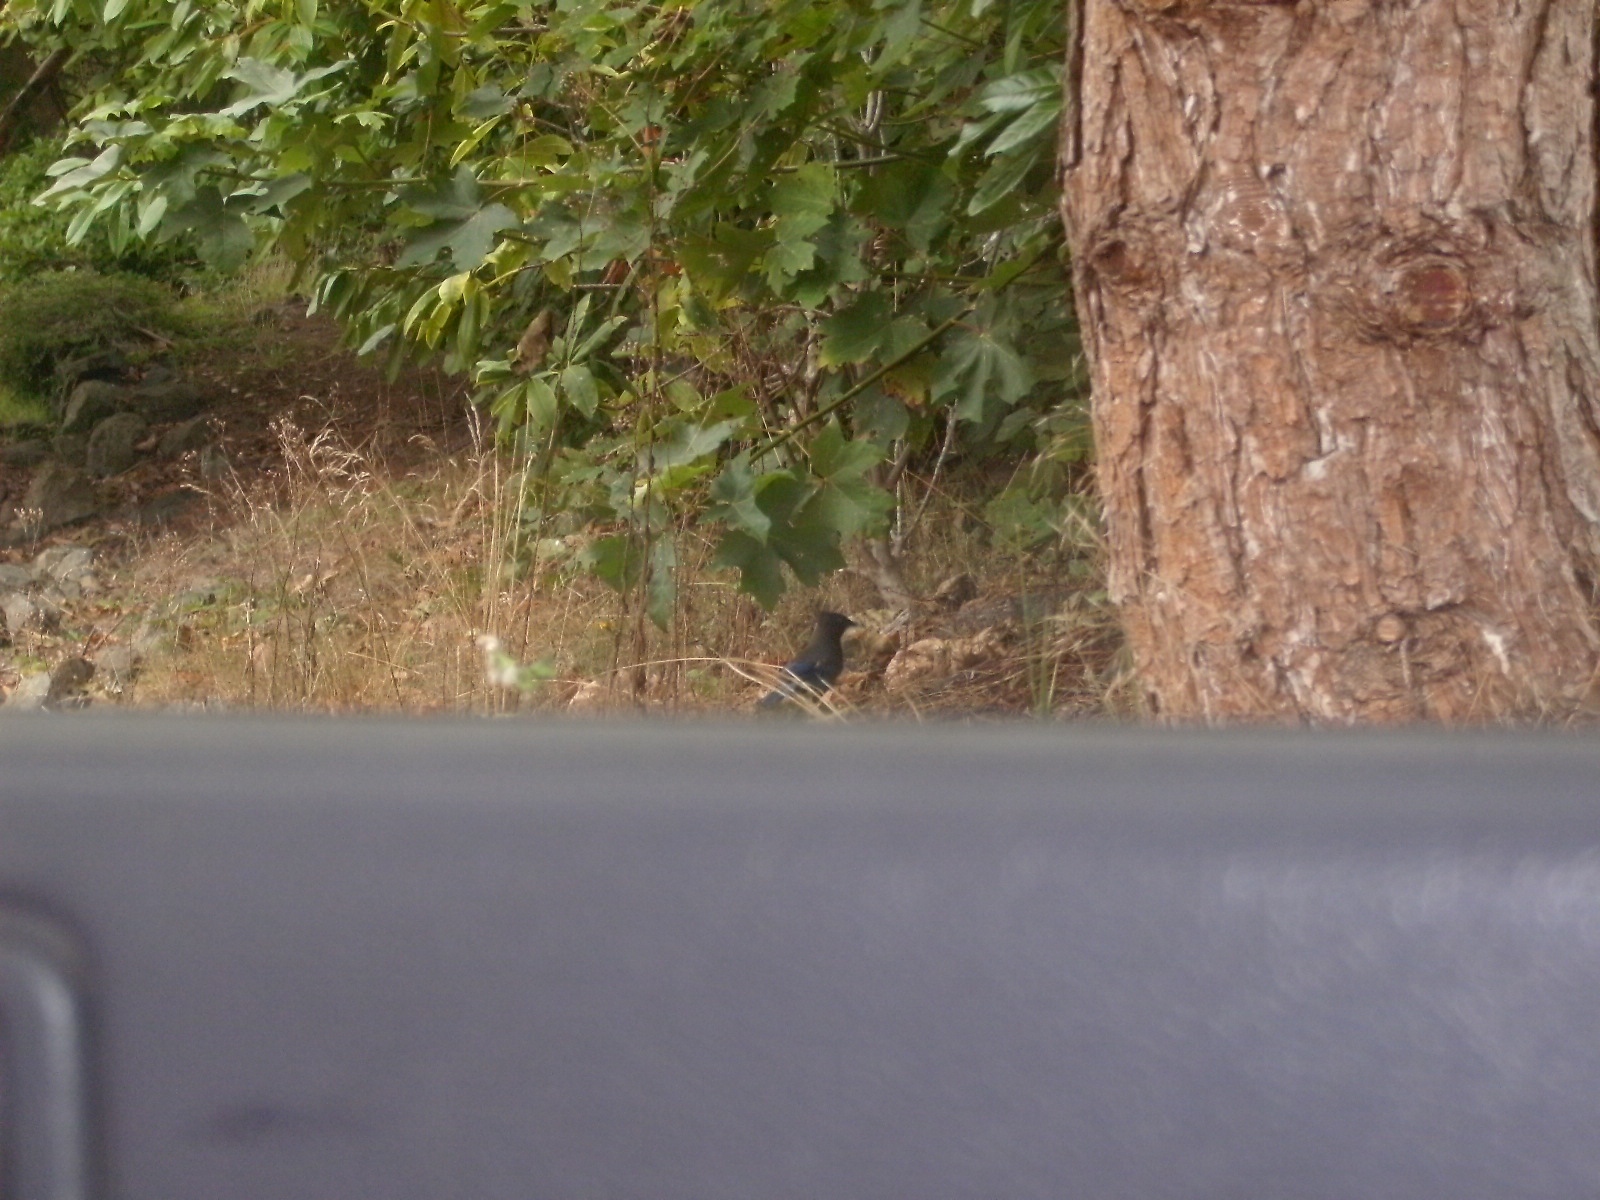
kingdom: Animalia
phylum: Chordata
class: Aves
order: Passeriformes
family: Corvidae
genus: Cyanocitta
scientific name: Cyanocitta stelleri
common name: Steller's jay
